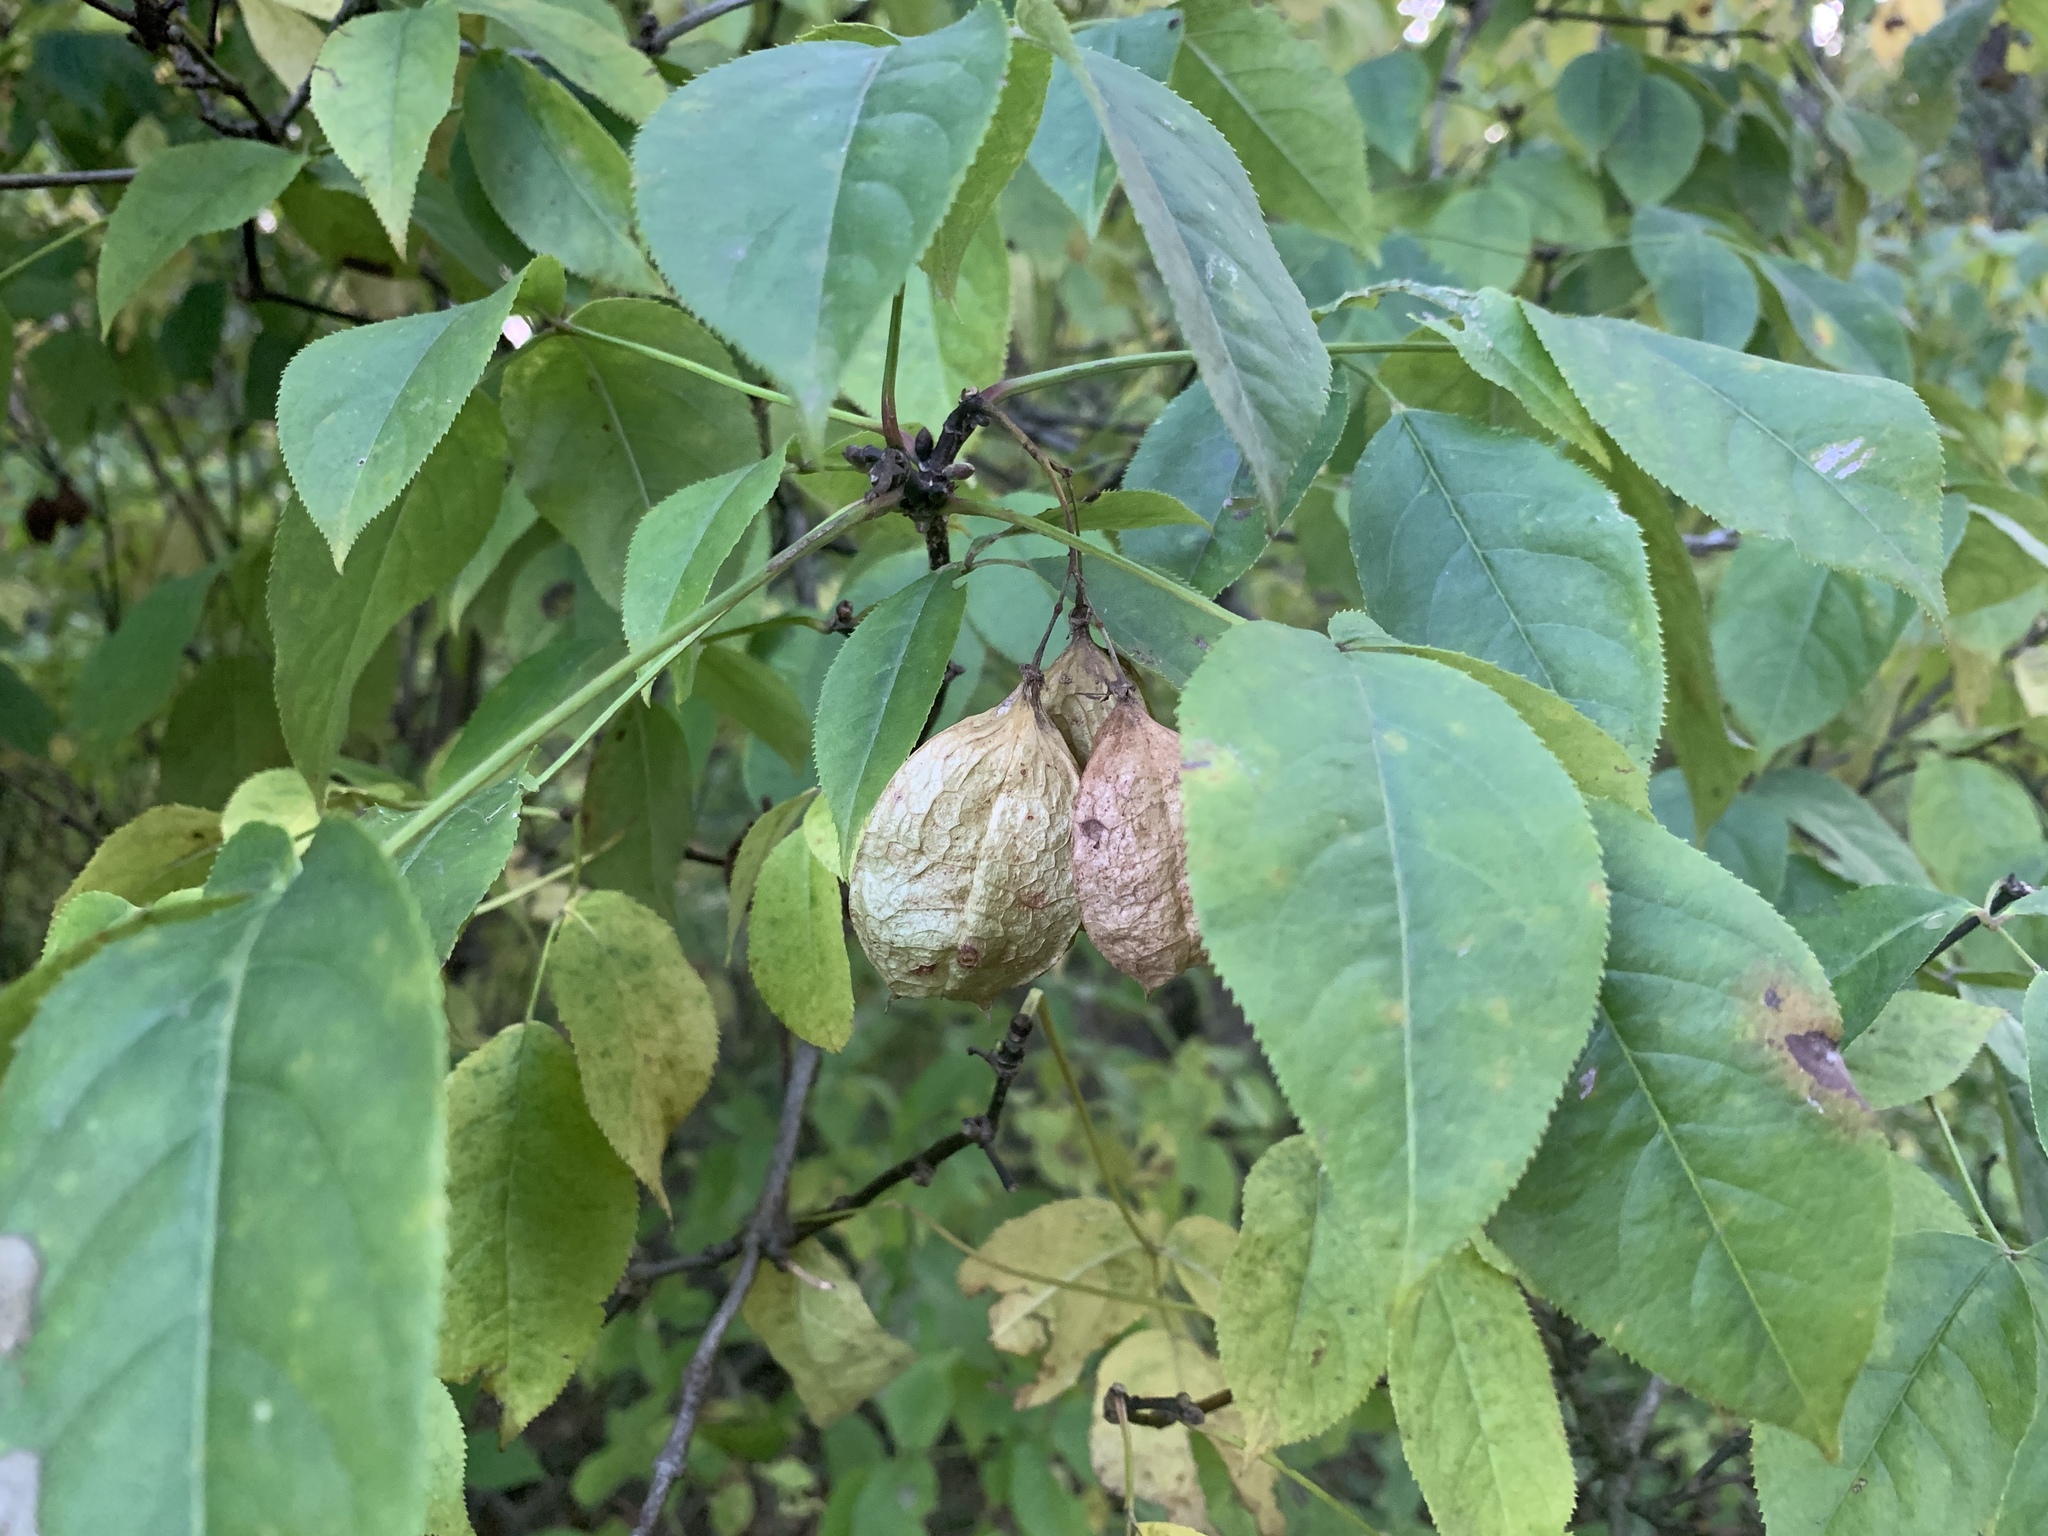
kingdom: Plantae
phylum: Tracheophyta
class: Magnoliopsida
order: Crossosomatales
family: Staphyleaceae
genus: Staphylea
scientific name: Staphylea trifolia
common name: American bladdernut
